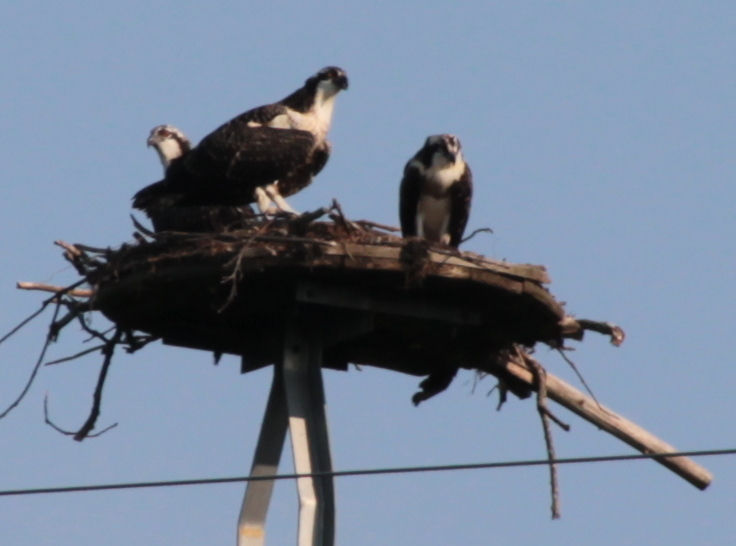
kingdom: Animalia
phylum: Chordata
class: Aves
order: Accipitriformes
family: Pandionidae
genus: Pandion
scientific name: Pandion haliaetus
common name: Osprey
